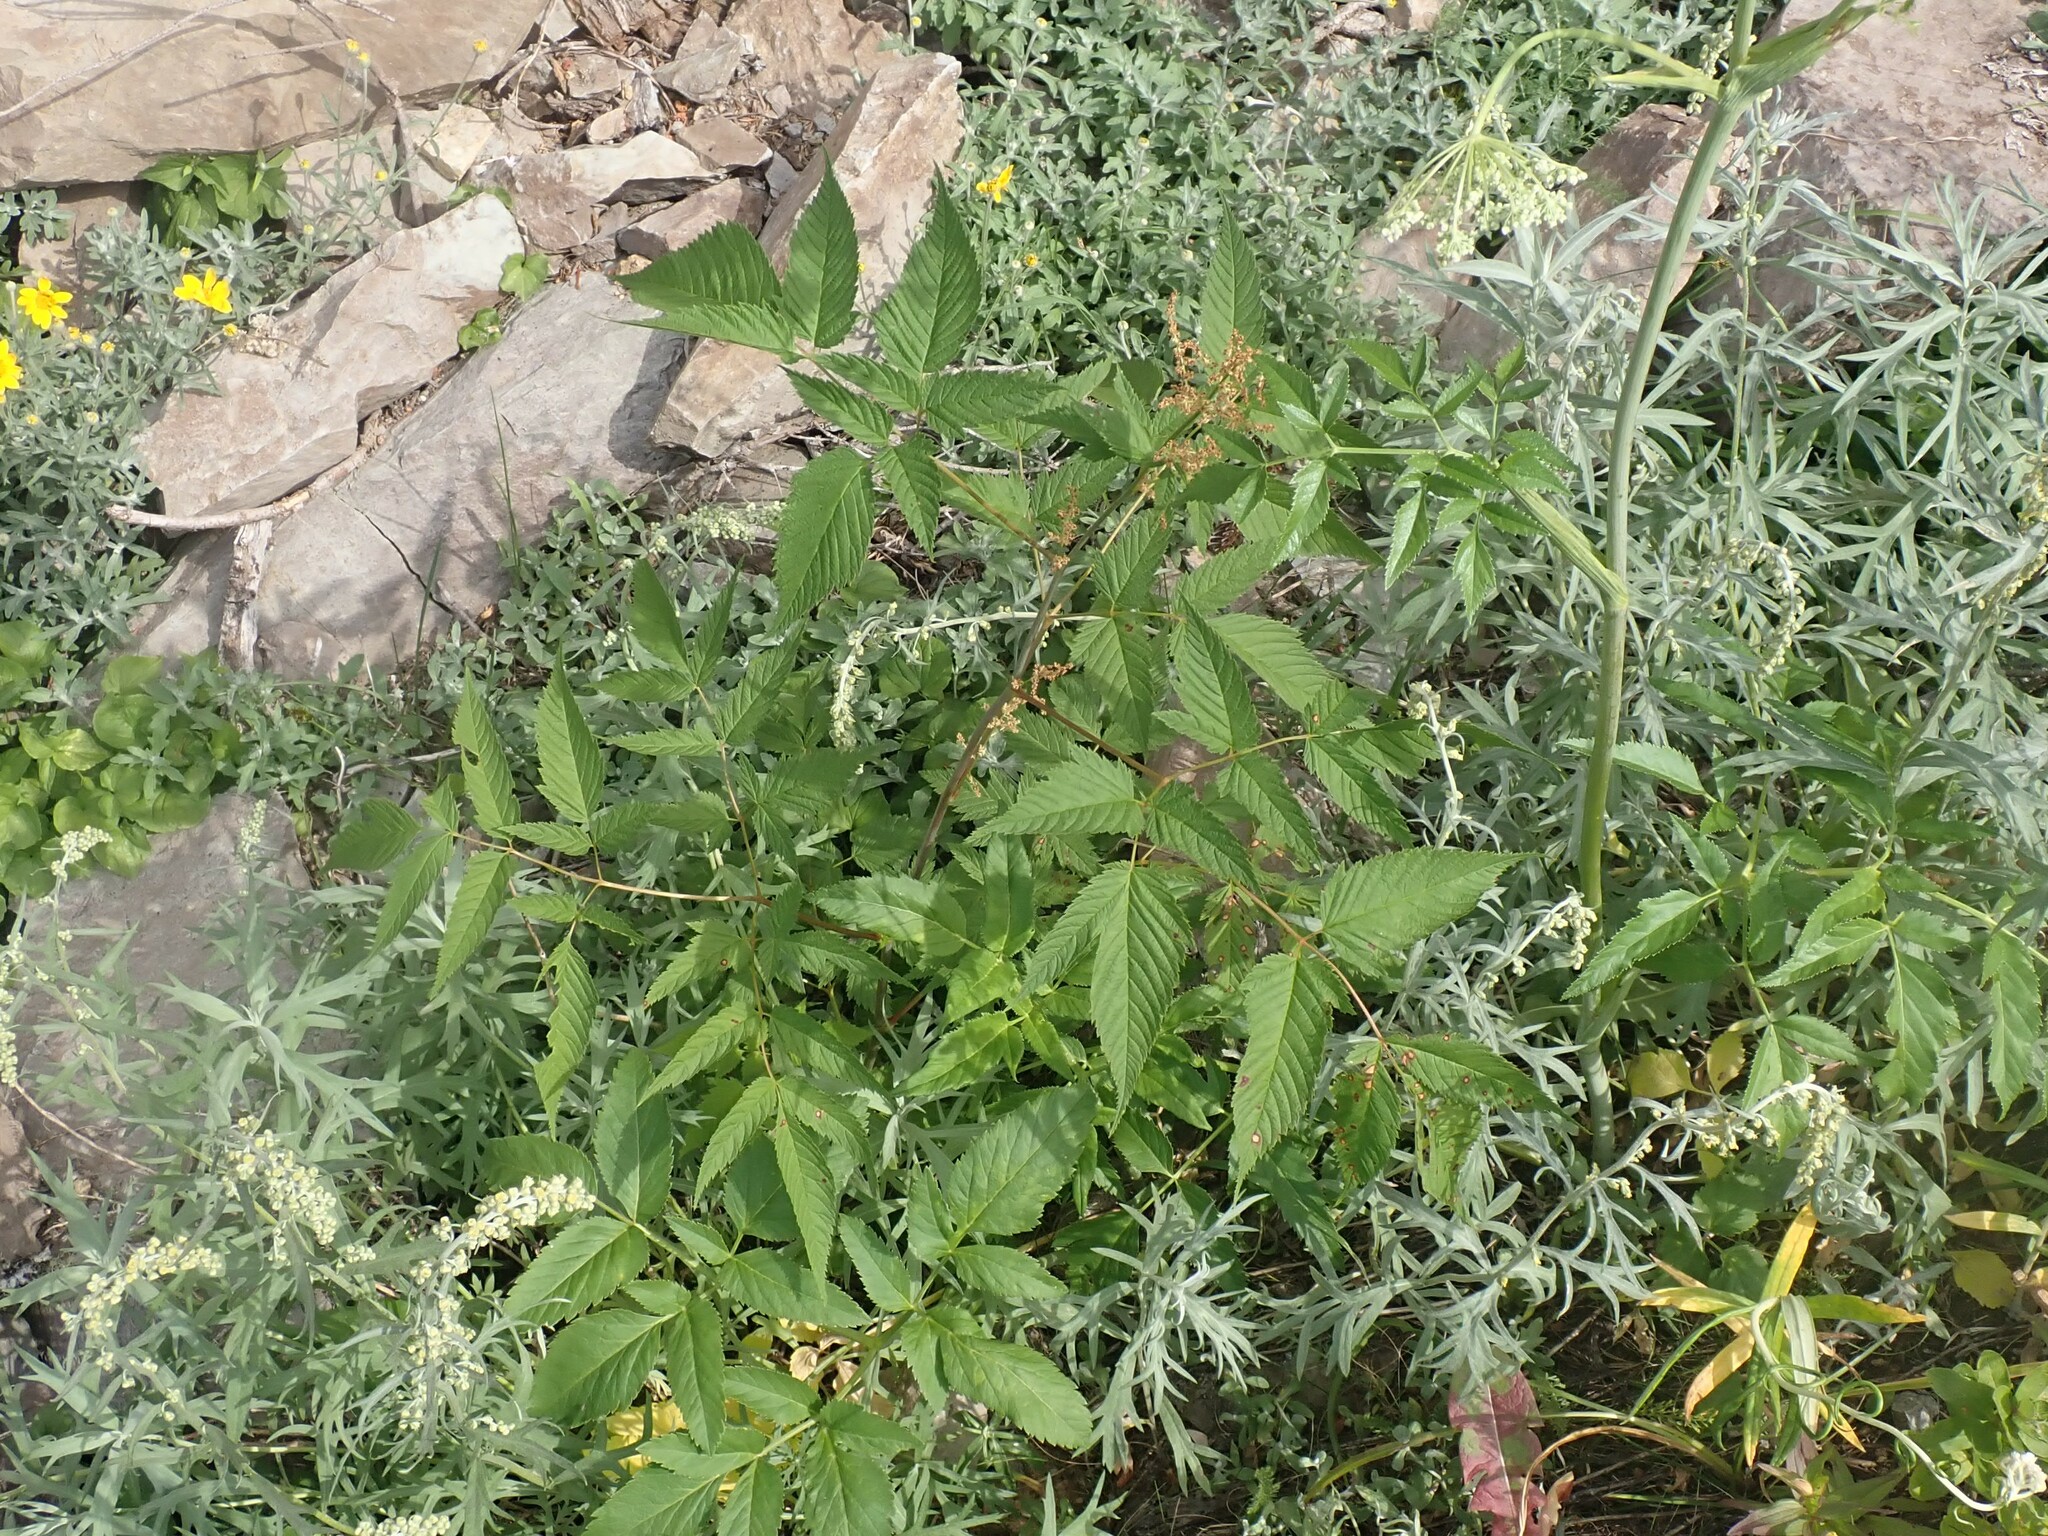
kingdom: Plantae
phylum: Tracheophyta
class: Magnoliopsida
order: Rosales
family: Rosaceae
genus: Aruncus
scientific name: Aruncus dioicus
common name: Buck's-beard
